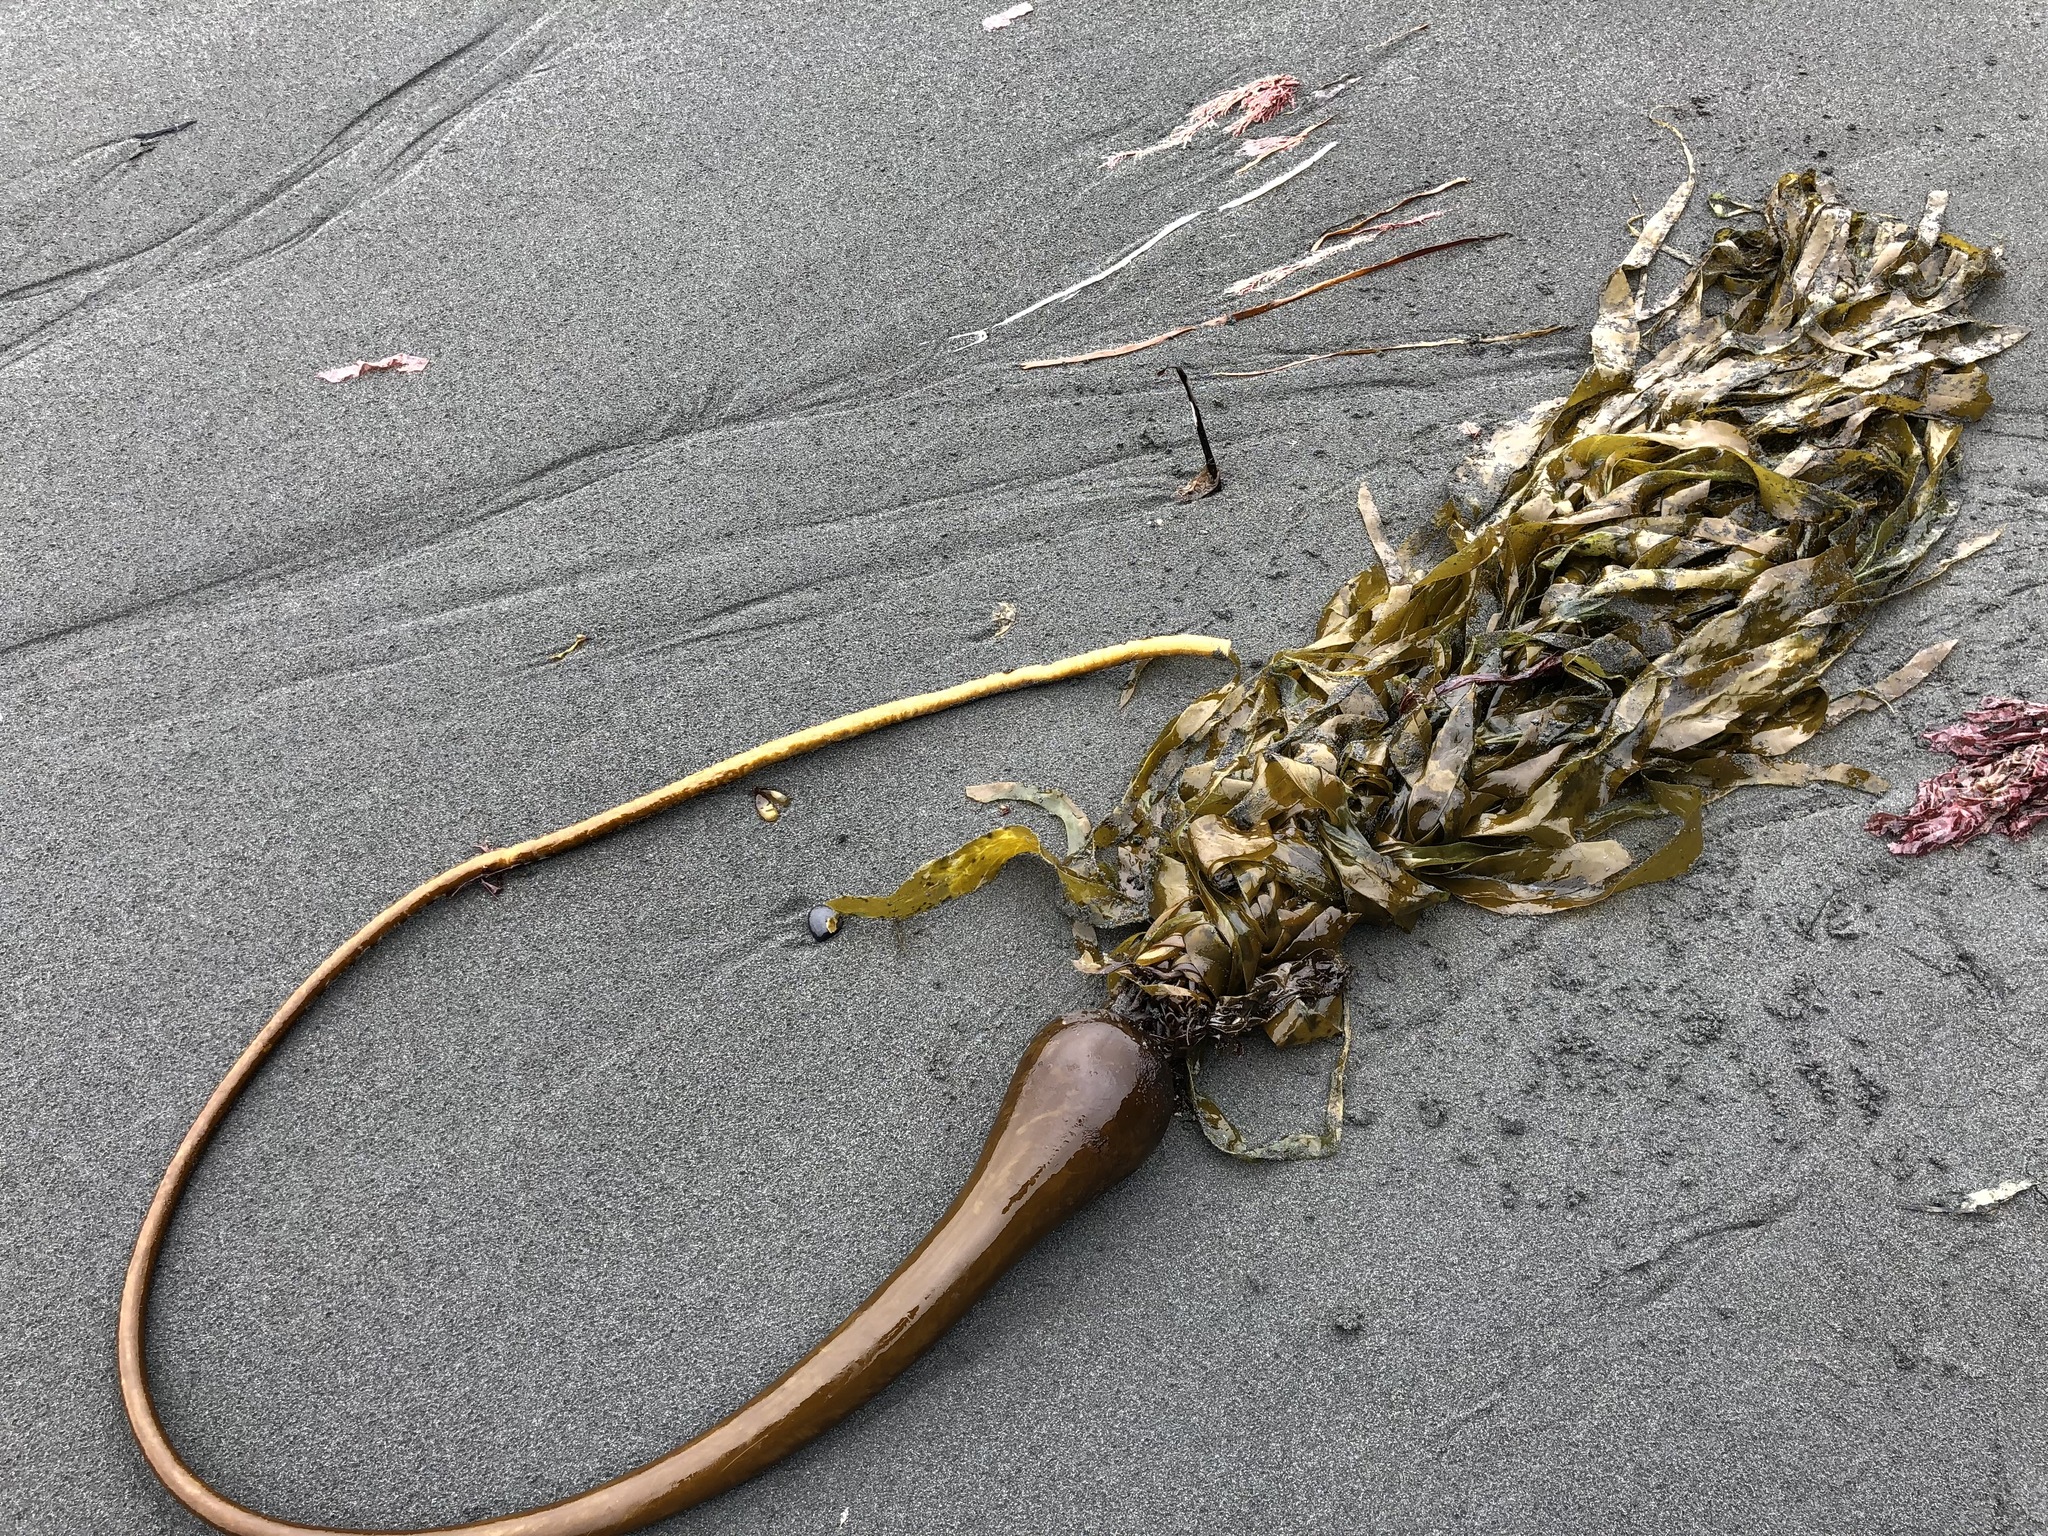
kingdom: Chromista
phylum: Ochrophyta
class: Phaeophyceae
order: Laminariales
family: Laminariaceae
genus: Nereocystis
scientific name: Nereocystis luetkeana
